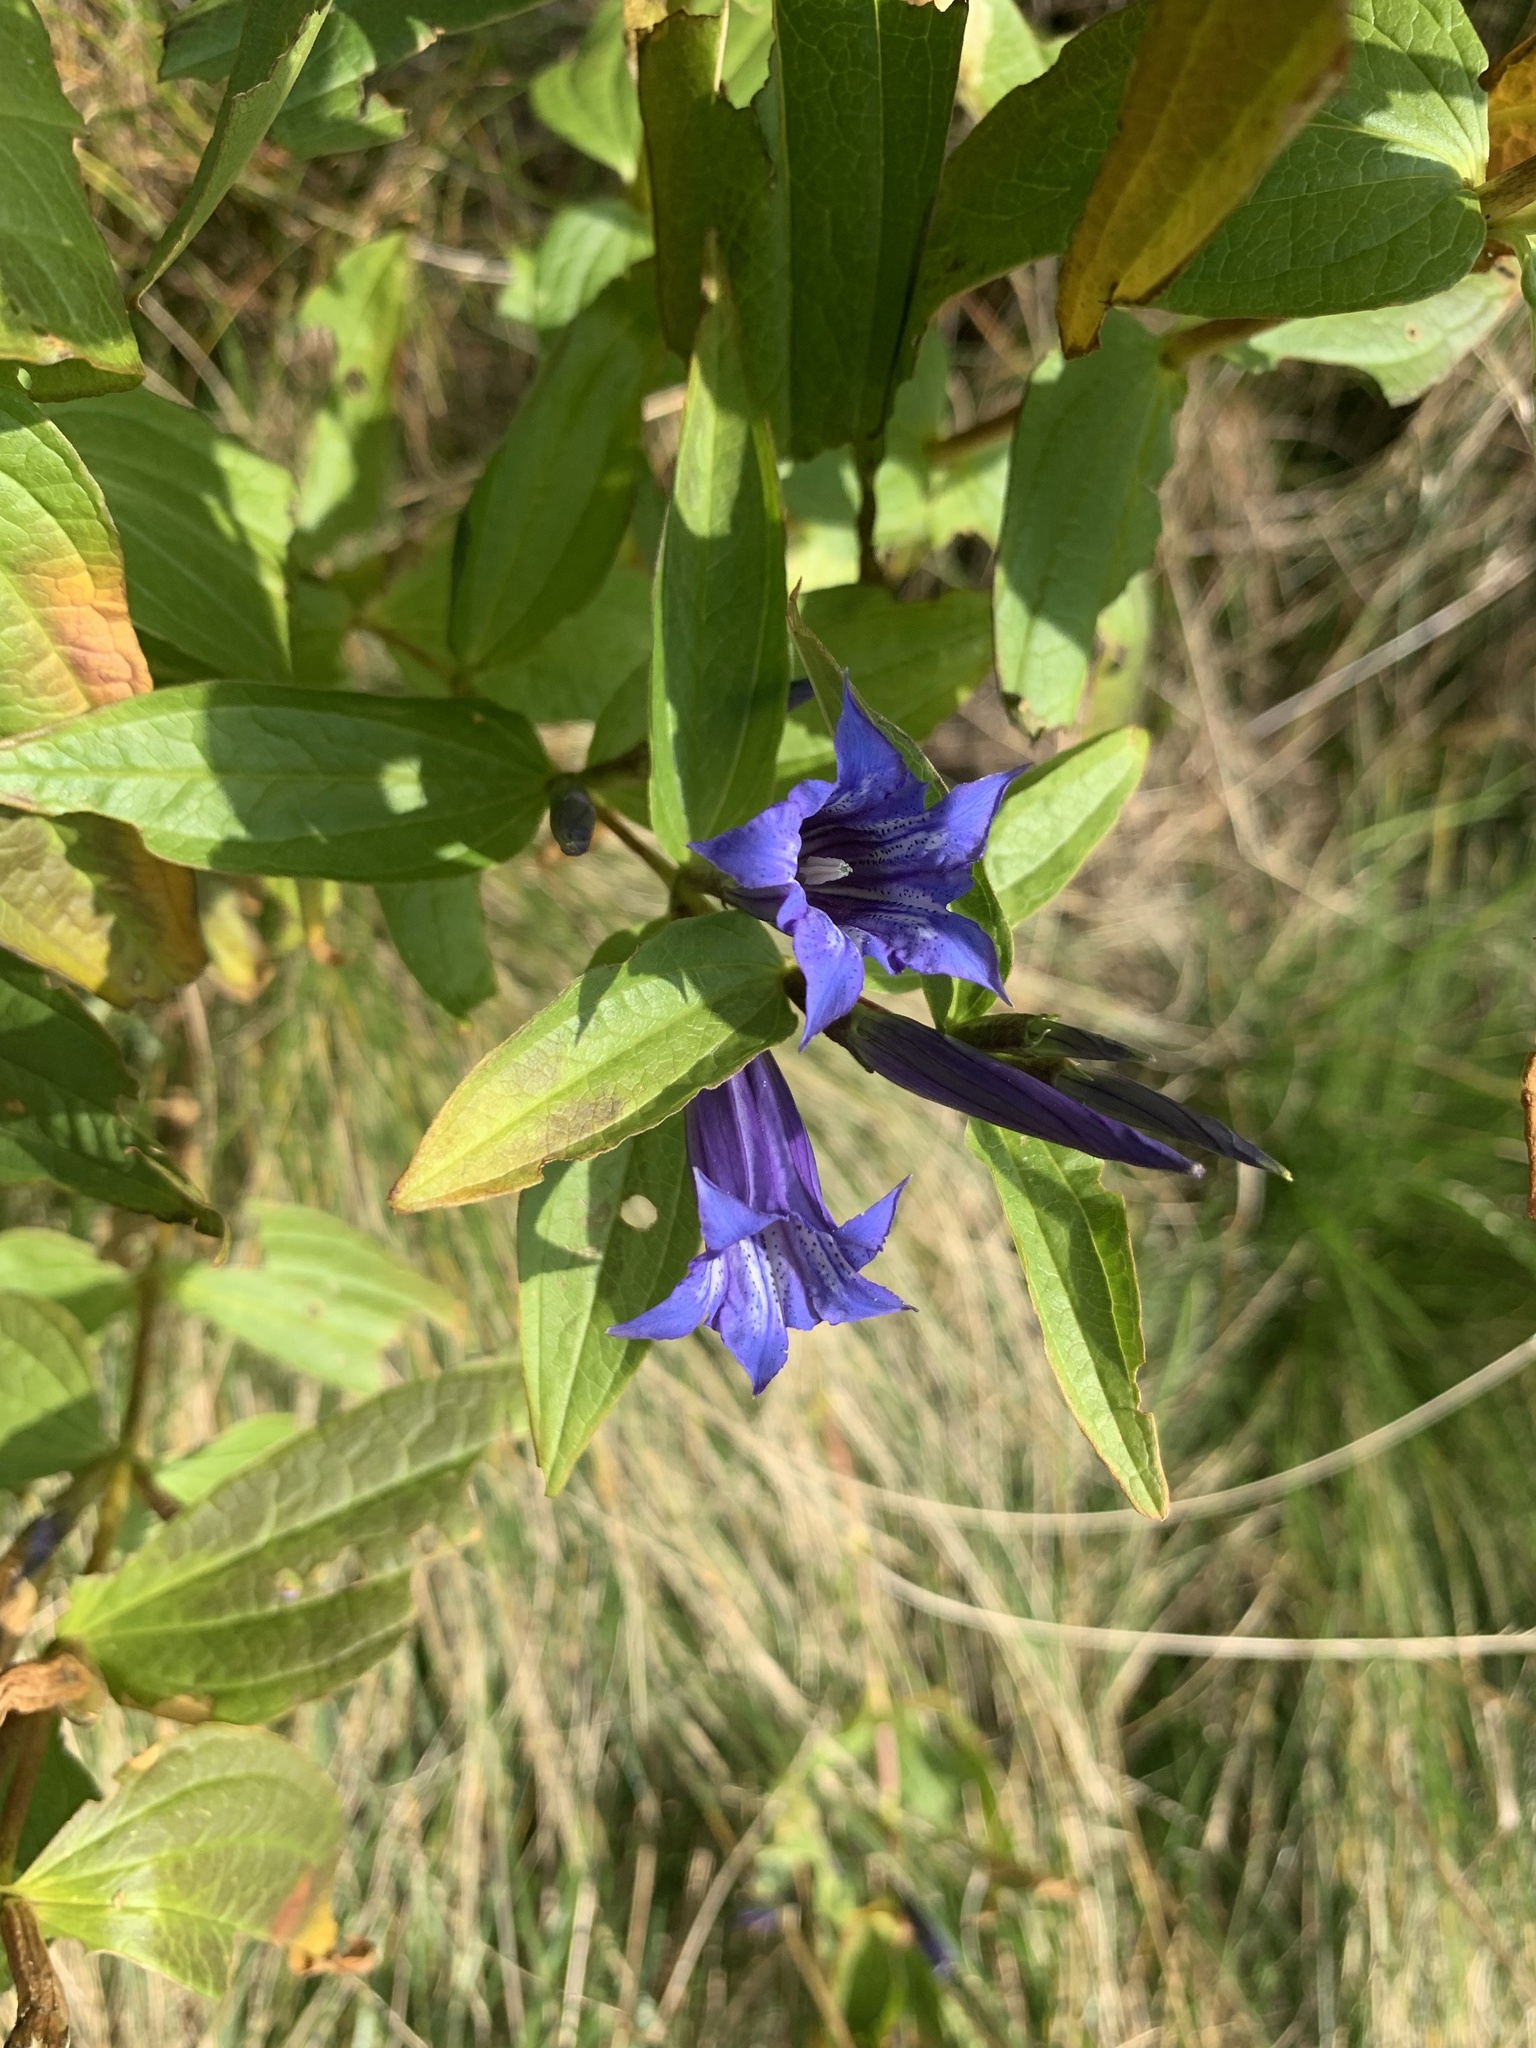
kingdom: Plantae
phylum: Tracheophyta
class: Magnoliopsida
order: Gentianales
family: Gentianaceae
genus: Gentiana
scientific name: Gentiana asclepiadea
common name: Willow gentian
